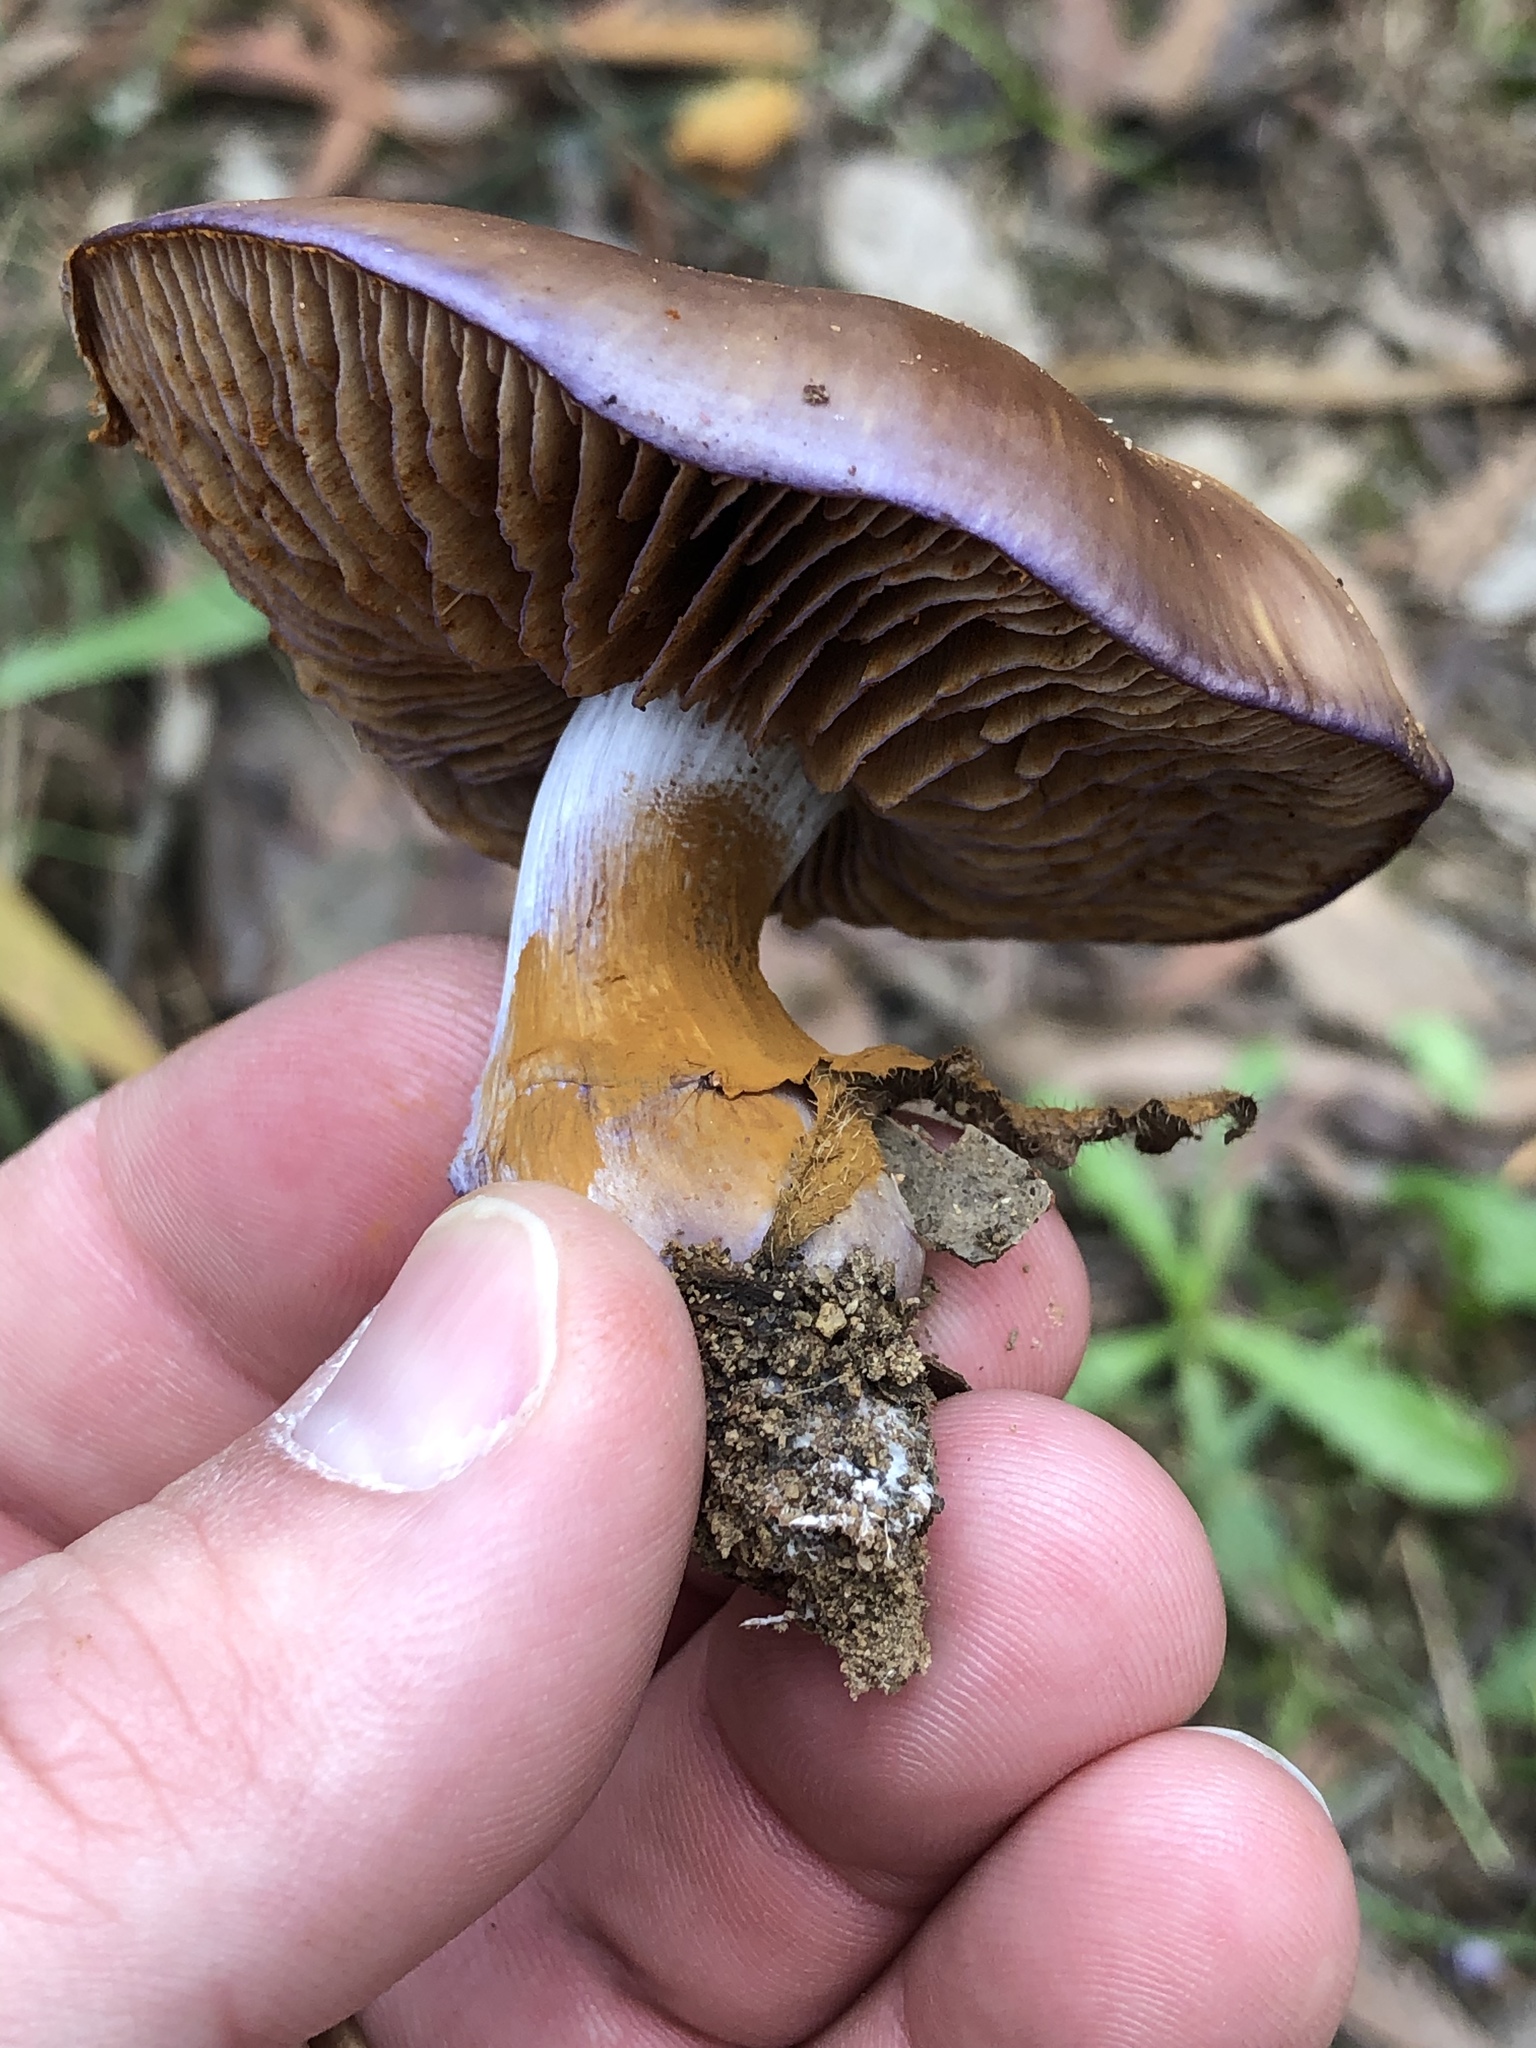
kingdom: Fungi
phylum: Basidiomycota
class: Agaricomycetes
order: Agaricales
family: Cortinariaceae
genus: Cortinarius
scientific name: Cortinarius archeri
